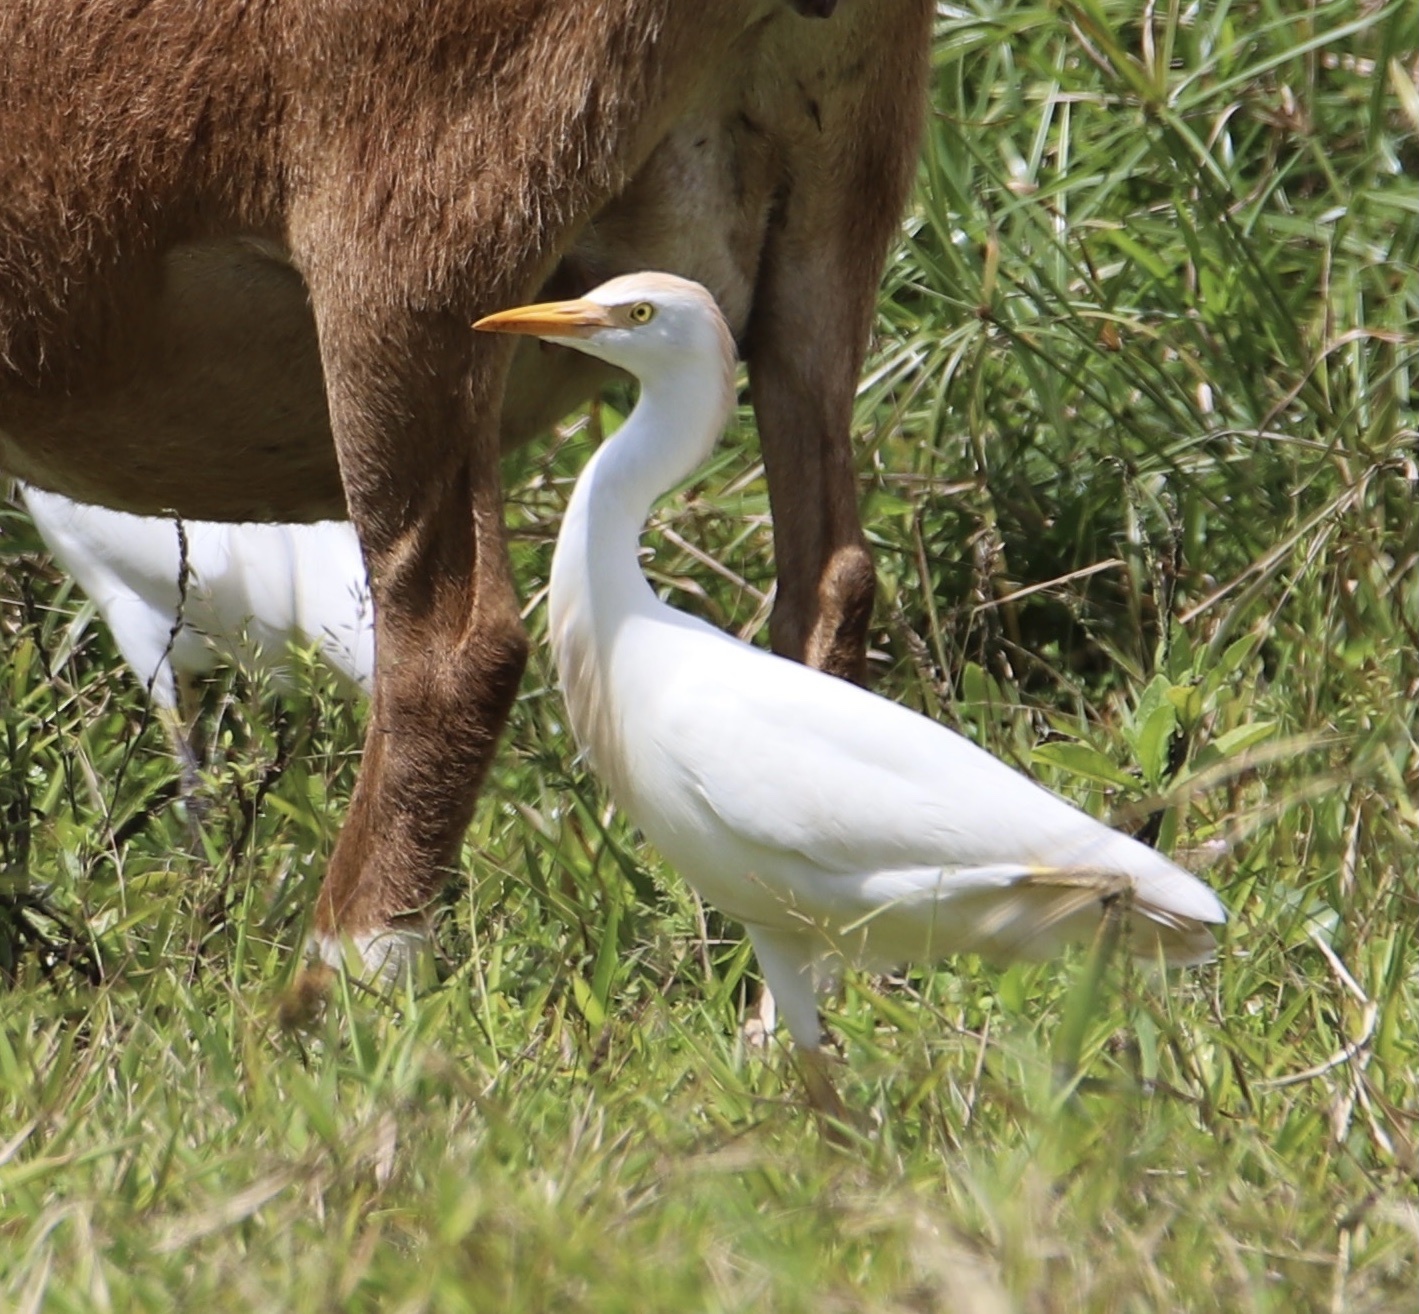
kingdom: Animalia
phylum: Chordata
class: Aves
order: Pelecaniformes
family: Ardeidae
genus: Bubulcus
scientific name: Bubulcus ibis
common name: Cattle egret
